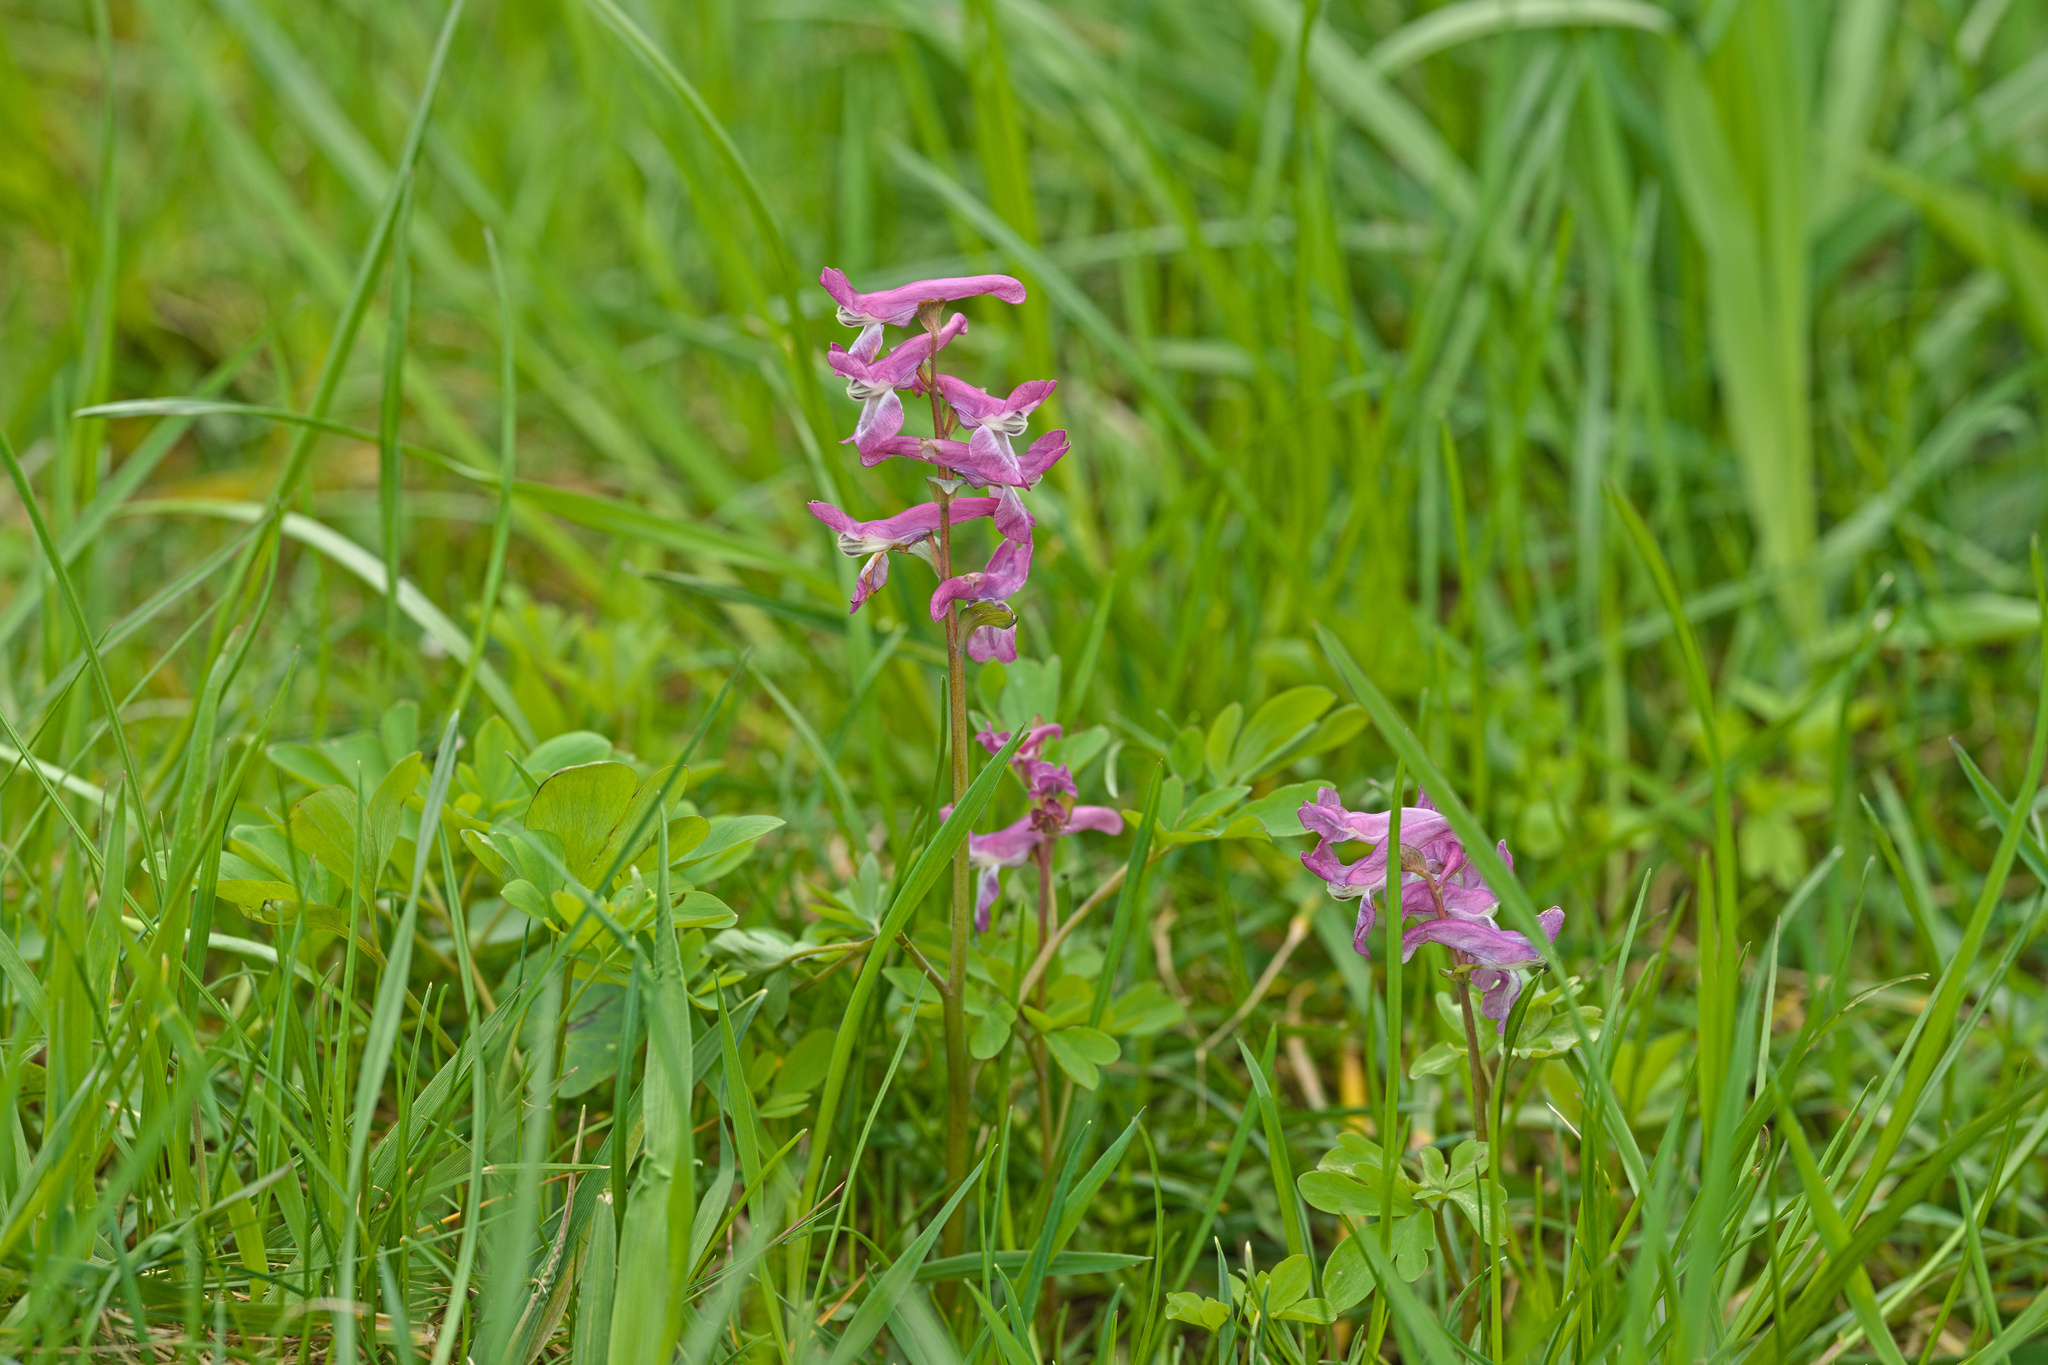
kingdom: Plantae
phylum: Tracheophyta
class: Magnoliopsida
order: Ranunculales
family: Papaveraceae
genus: Corydalis
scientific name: Corydalis cava
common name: Hollowroot
